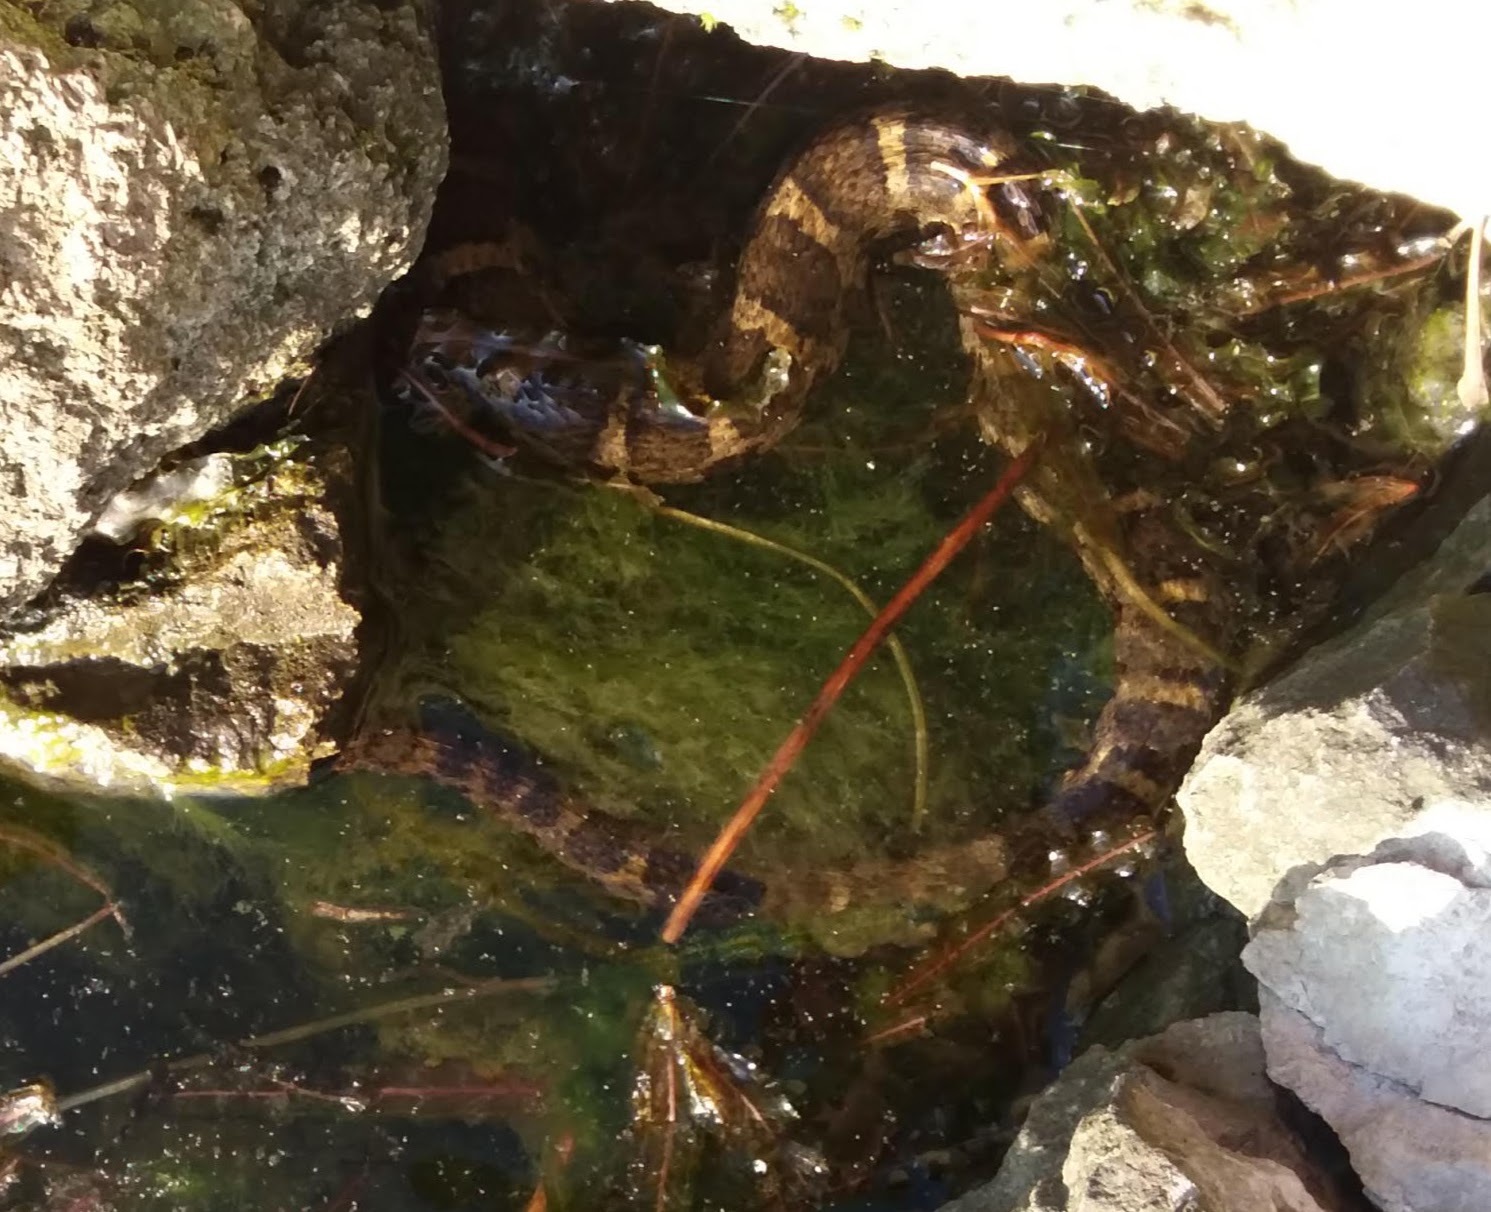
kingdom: Animalia
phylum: Chordata
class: Squamata
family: Colubridae
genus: Nerodia
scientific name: Nerodia sipedon
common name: Northern water snake
